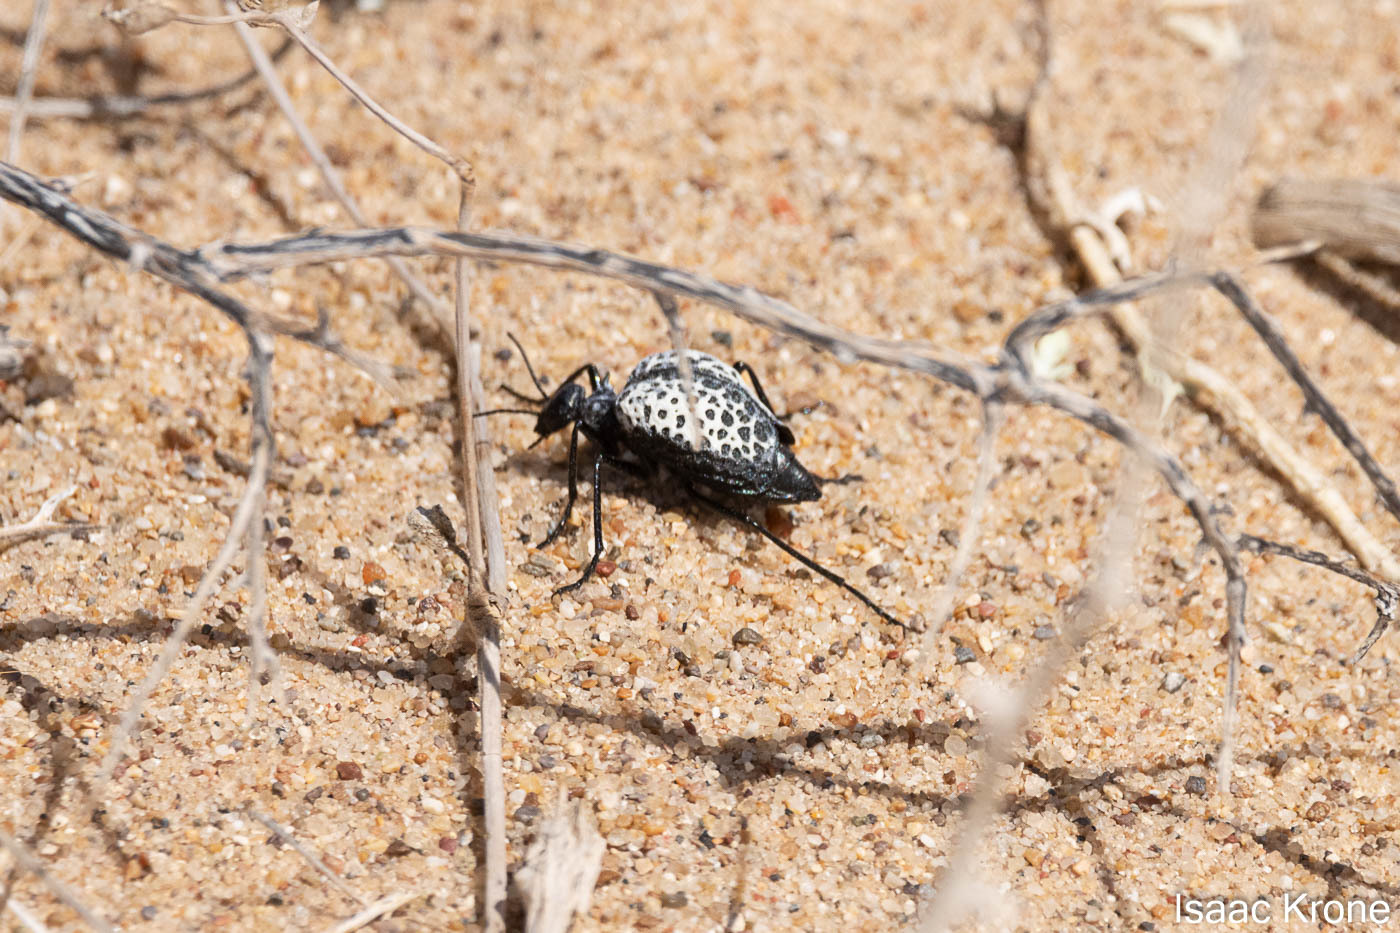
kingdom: Animalia
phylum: Arthropoda
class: Insecta
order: Coleoptera
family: Meloidae
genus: Cysteodemus
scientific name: Cysteodemus armatus
